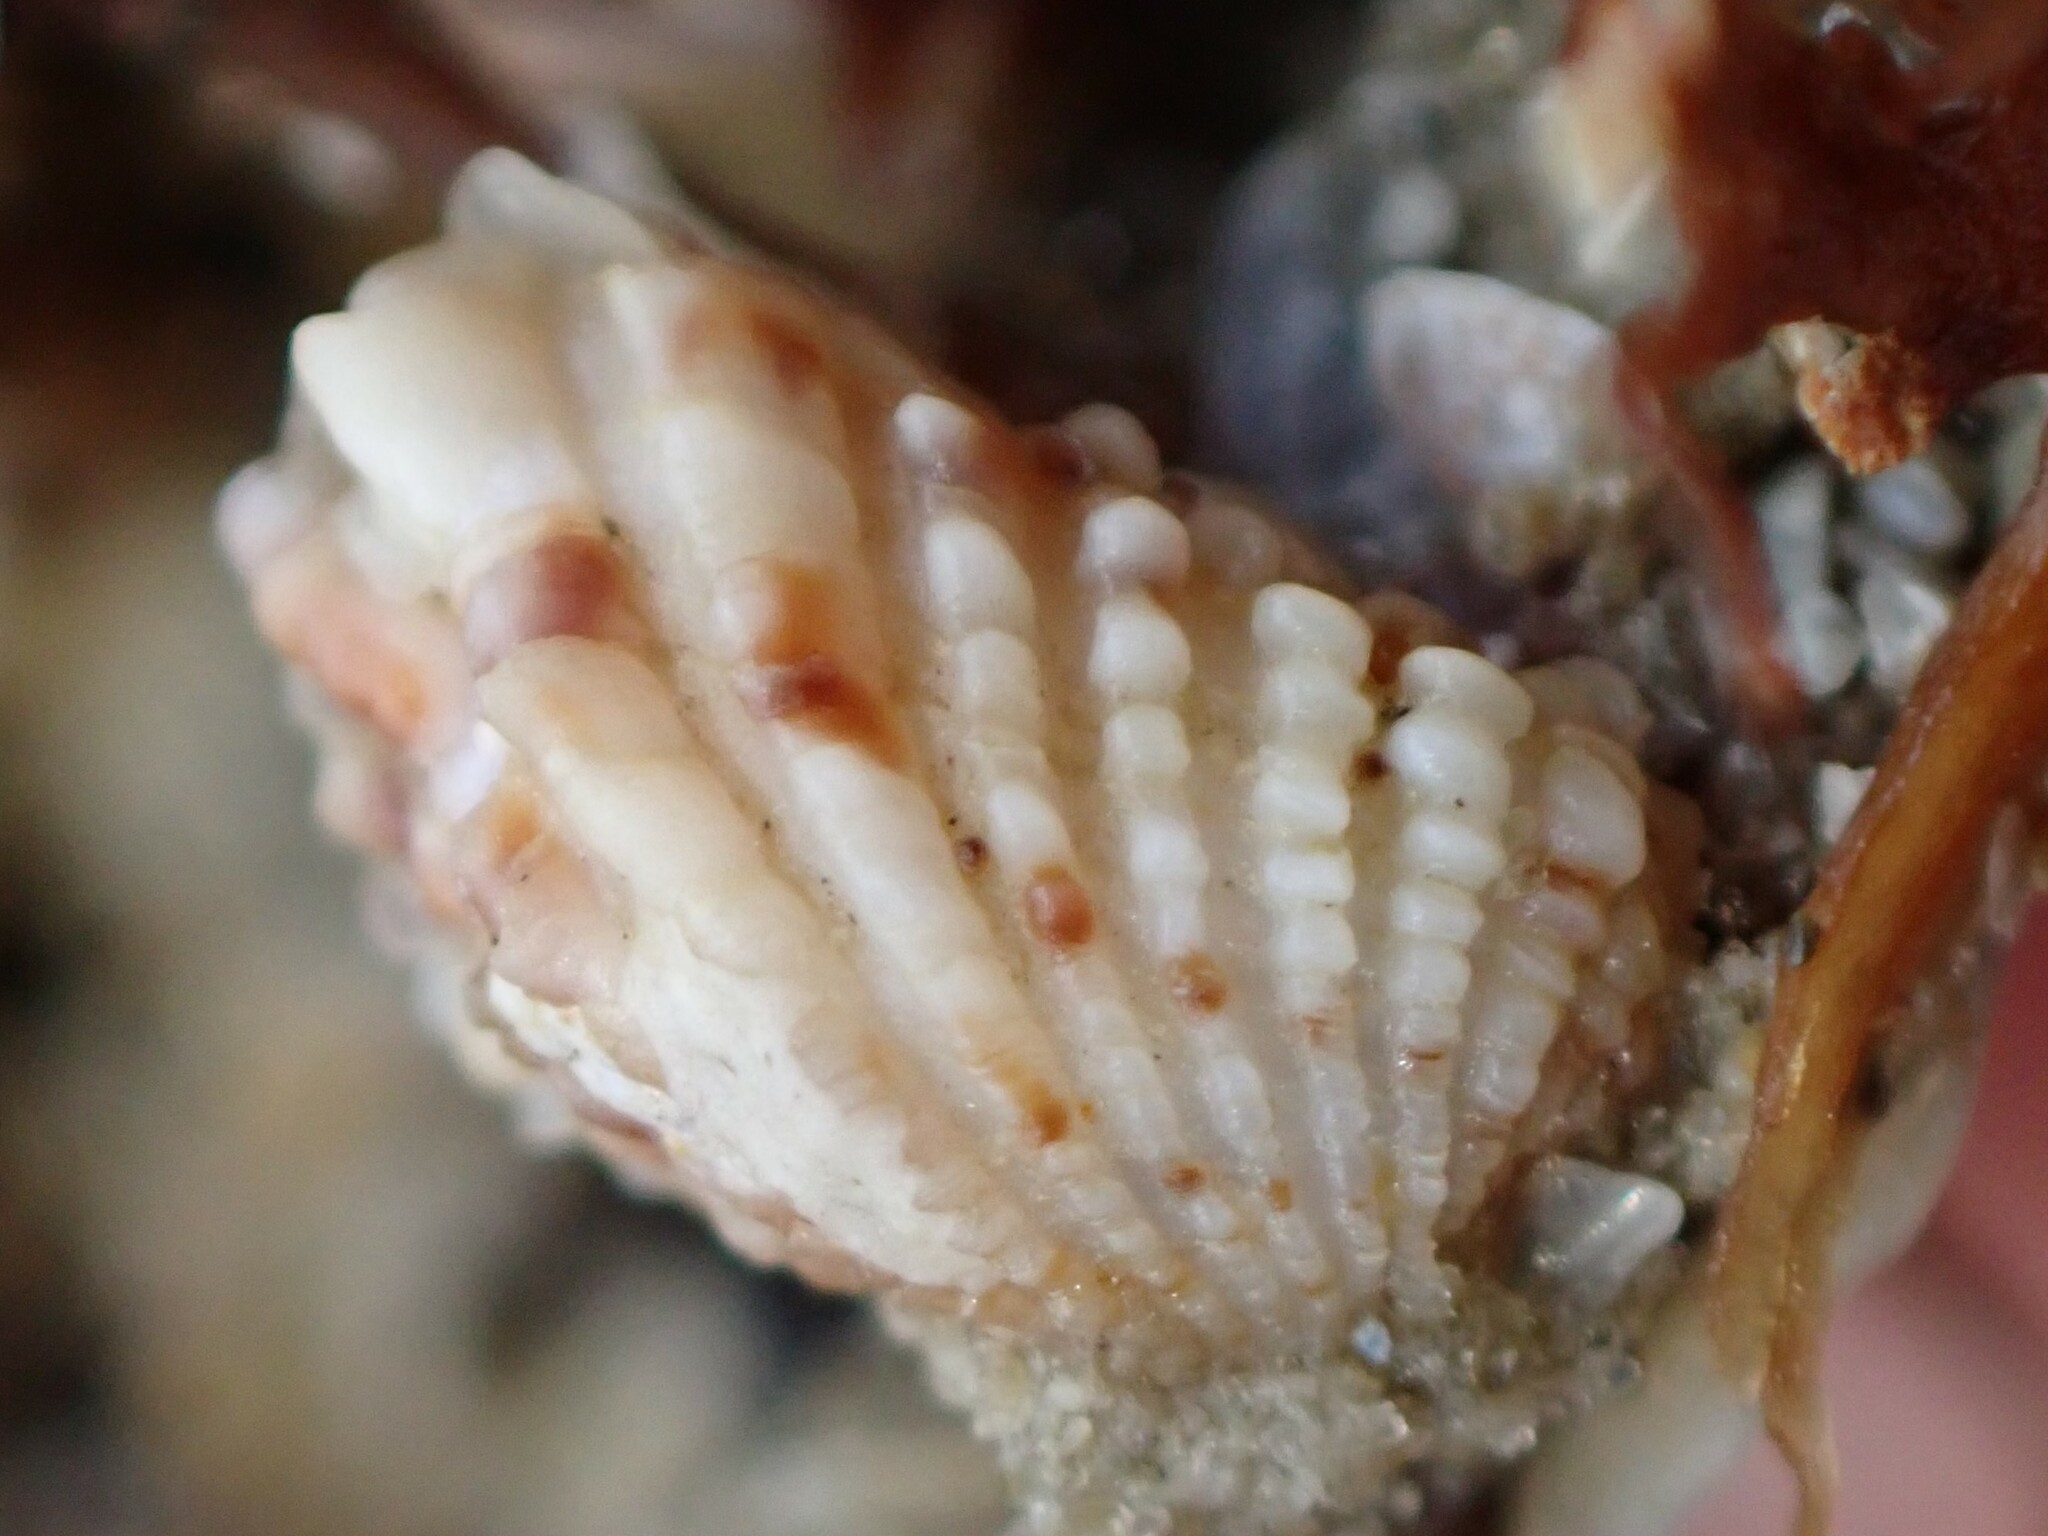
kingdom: Animalia
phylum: Mollusca
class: Bivalvia
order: Carditida
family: Carditidae
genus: Powellina
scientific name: Powellina brookesi
